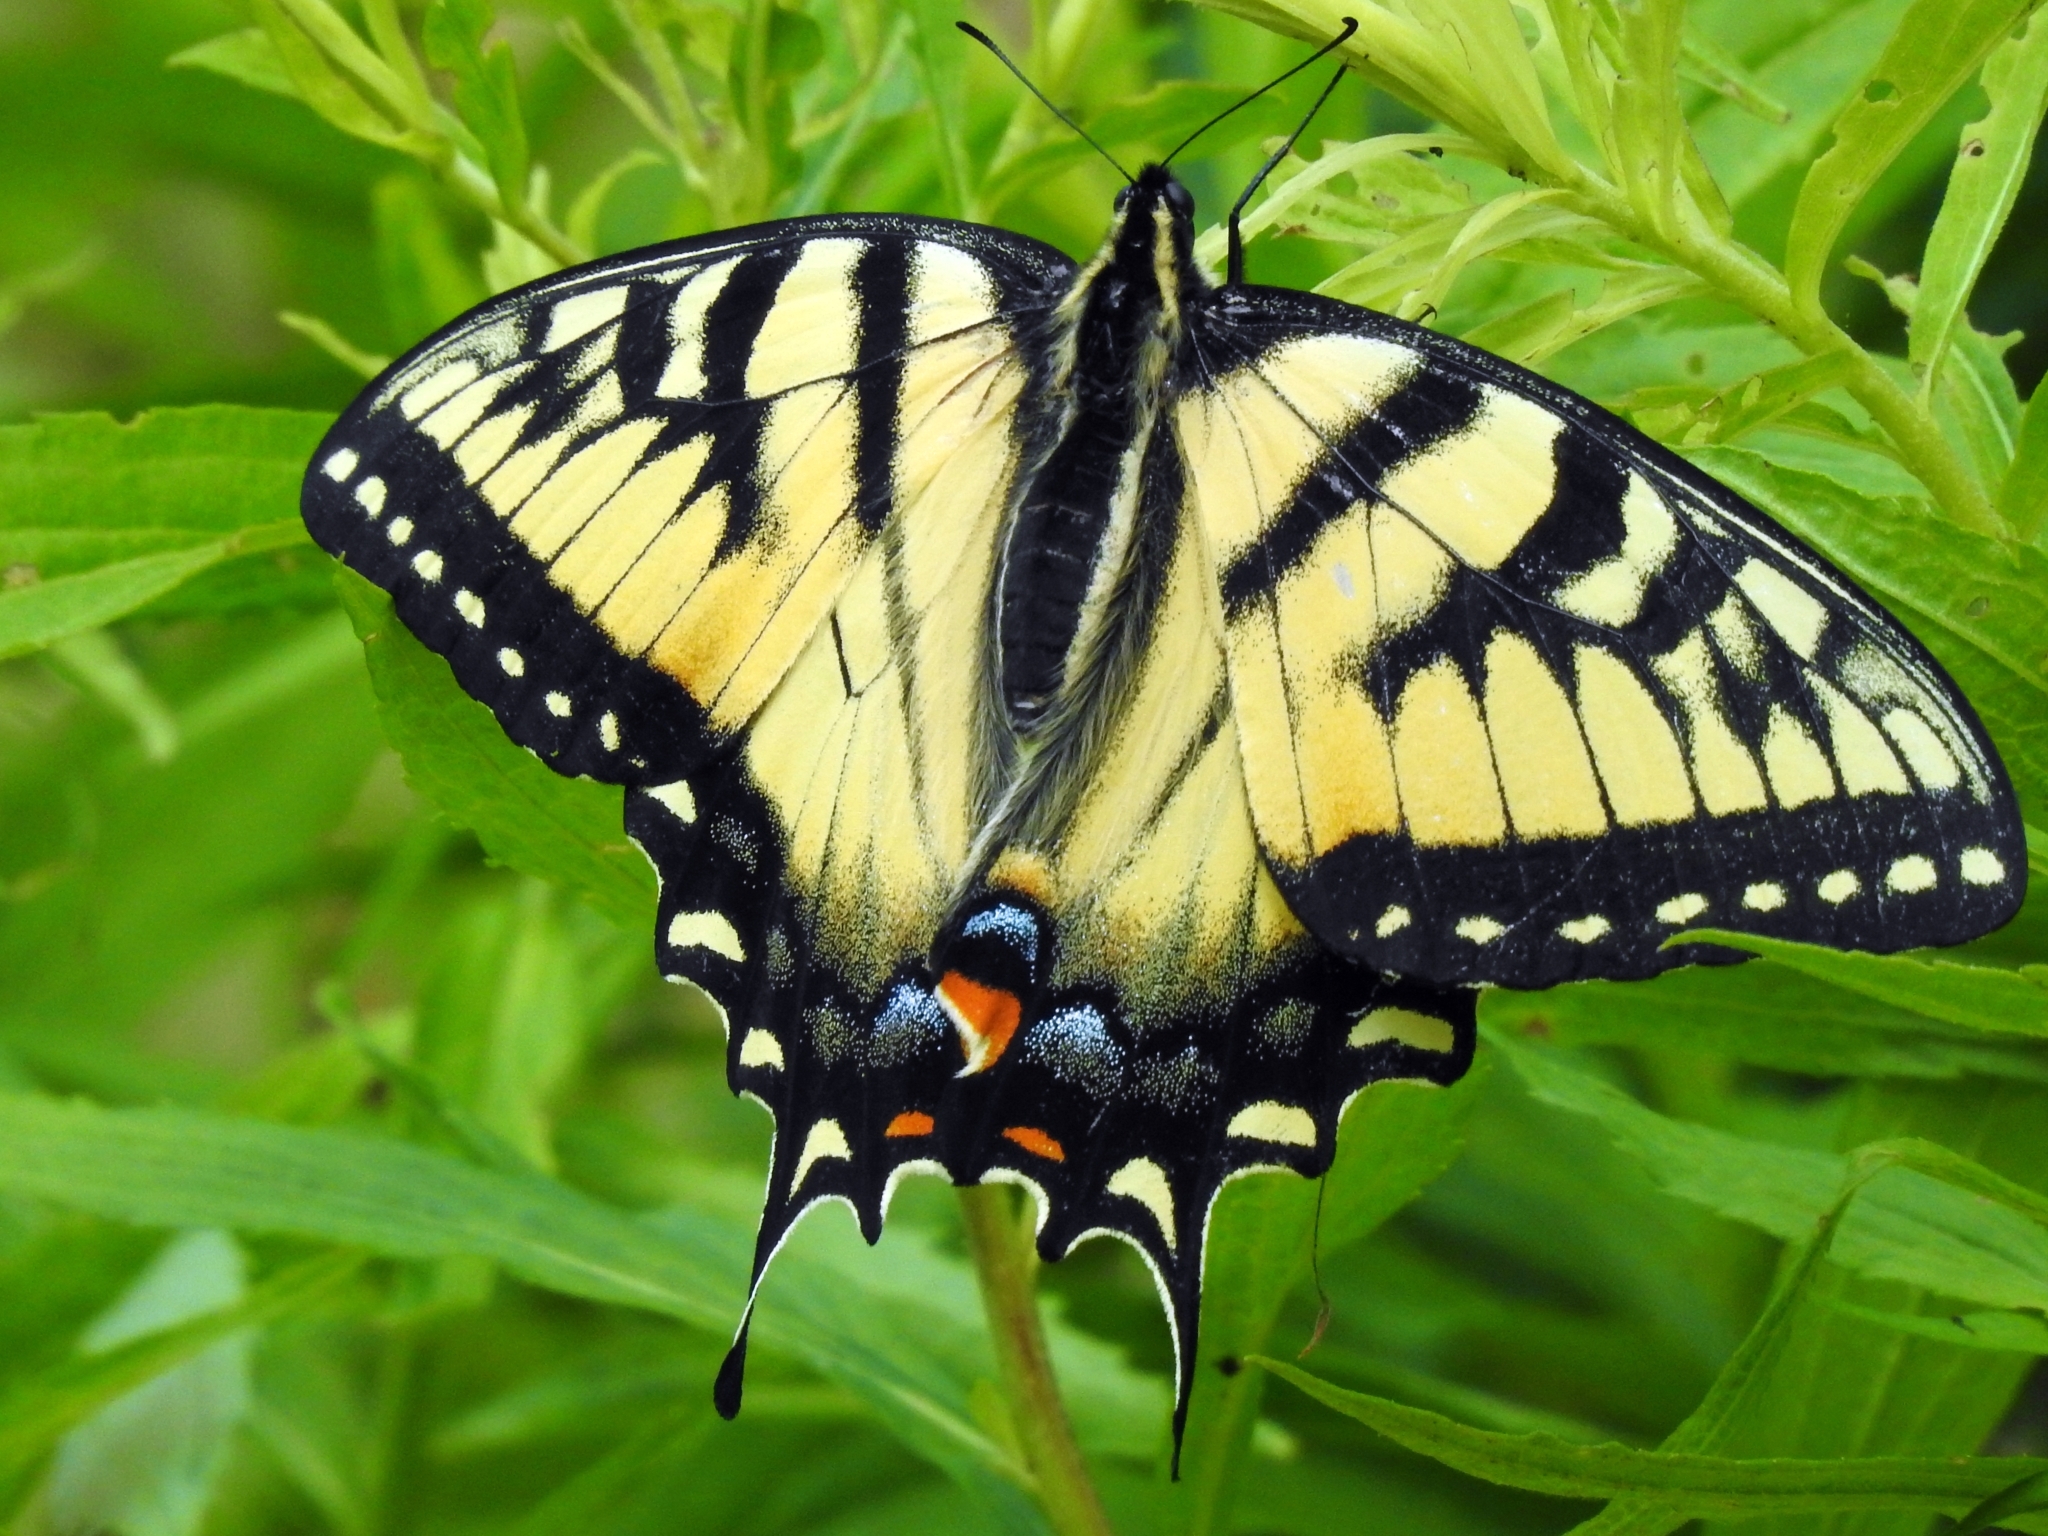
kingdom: Animalia
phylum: Arthropoda
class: Insecta
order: Lepidoptera
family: Papilionidae
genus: Papilio
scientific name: Papilio glaucus
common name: Tiger swallowtail
